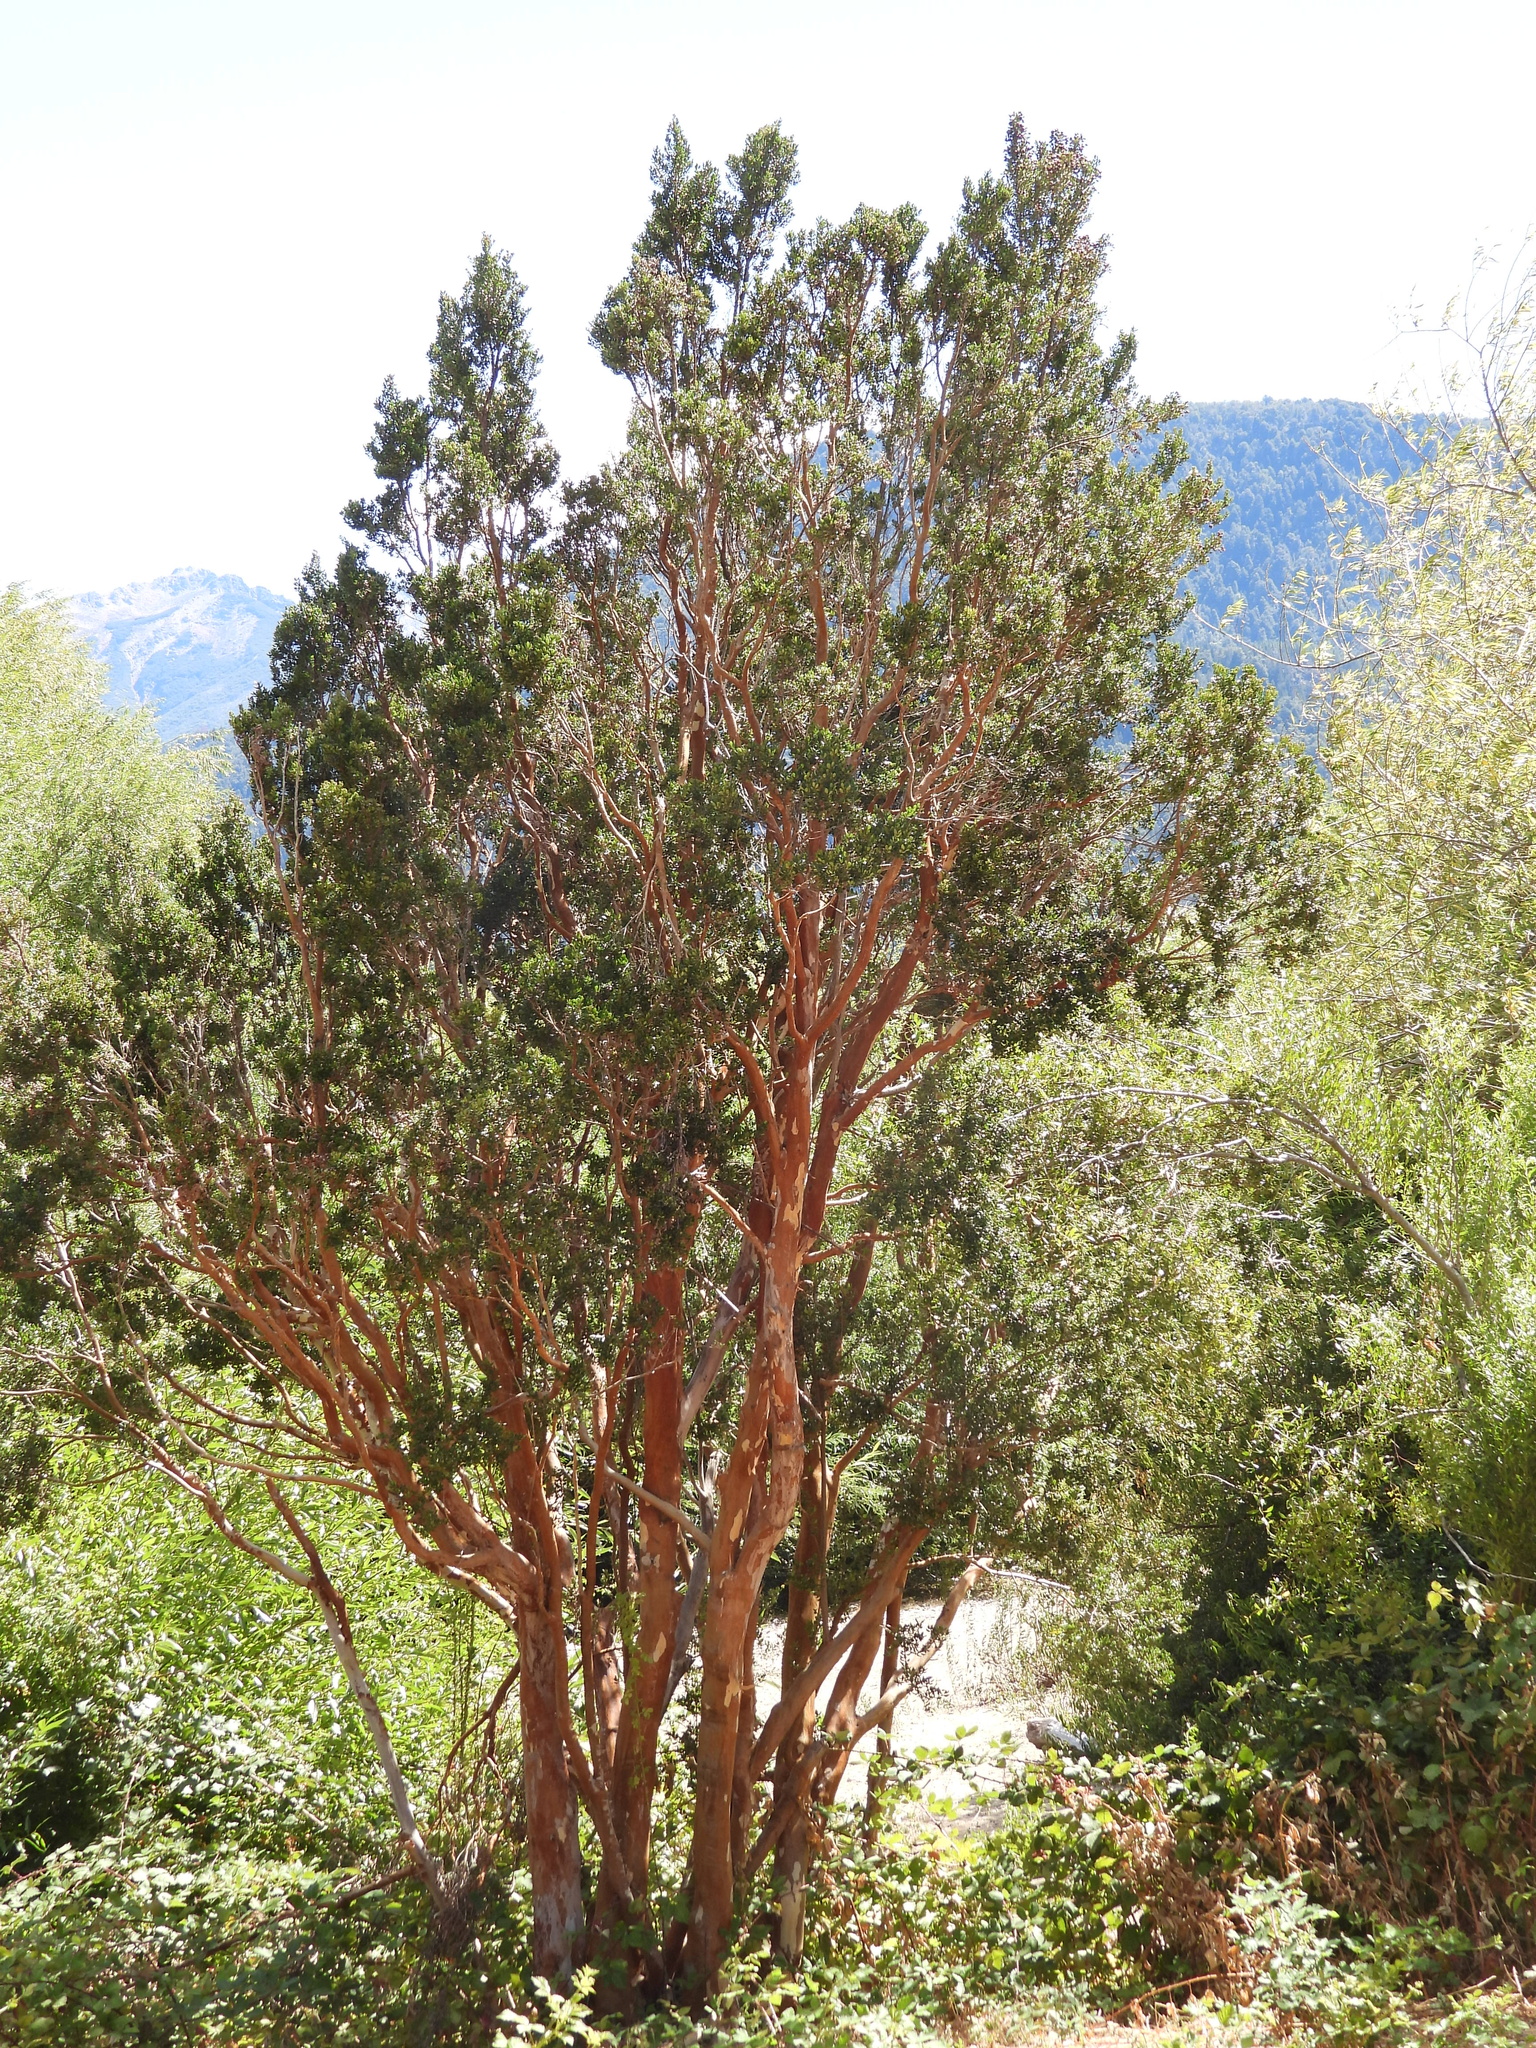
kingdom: Plantae
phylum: Tracheophyta
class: Magnoliopsida
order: Myrtales
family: Myrtaceae
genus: Luma
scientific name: Luma apiculata
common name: Chilean myrtle
